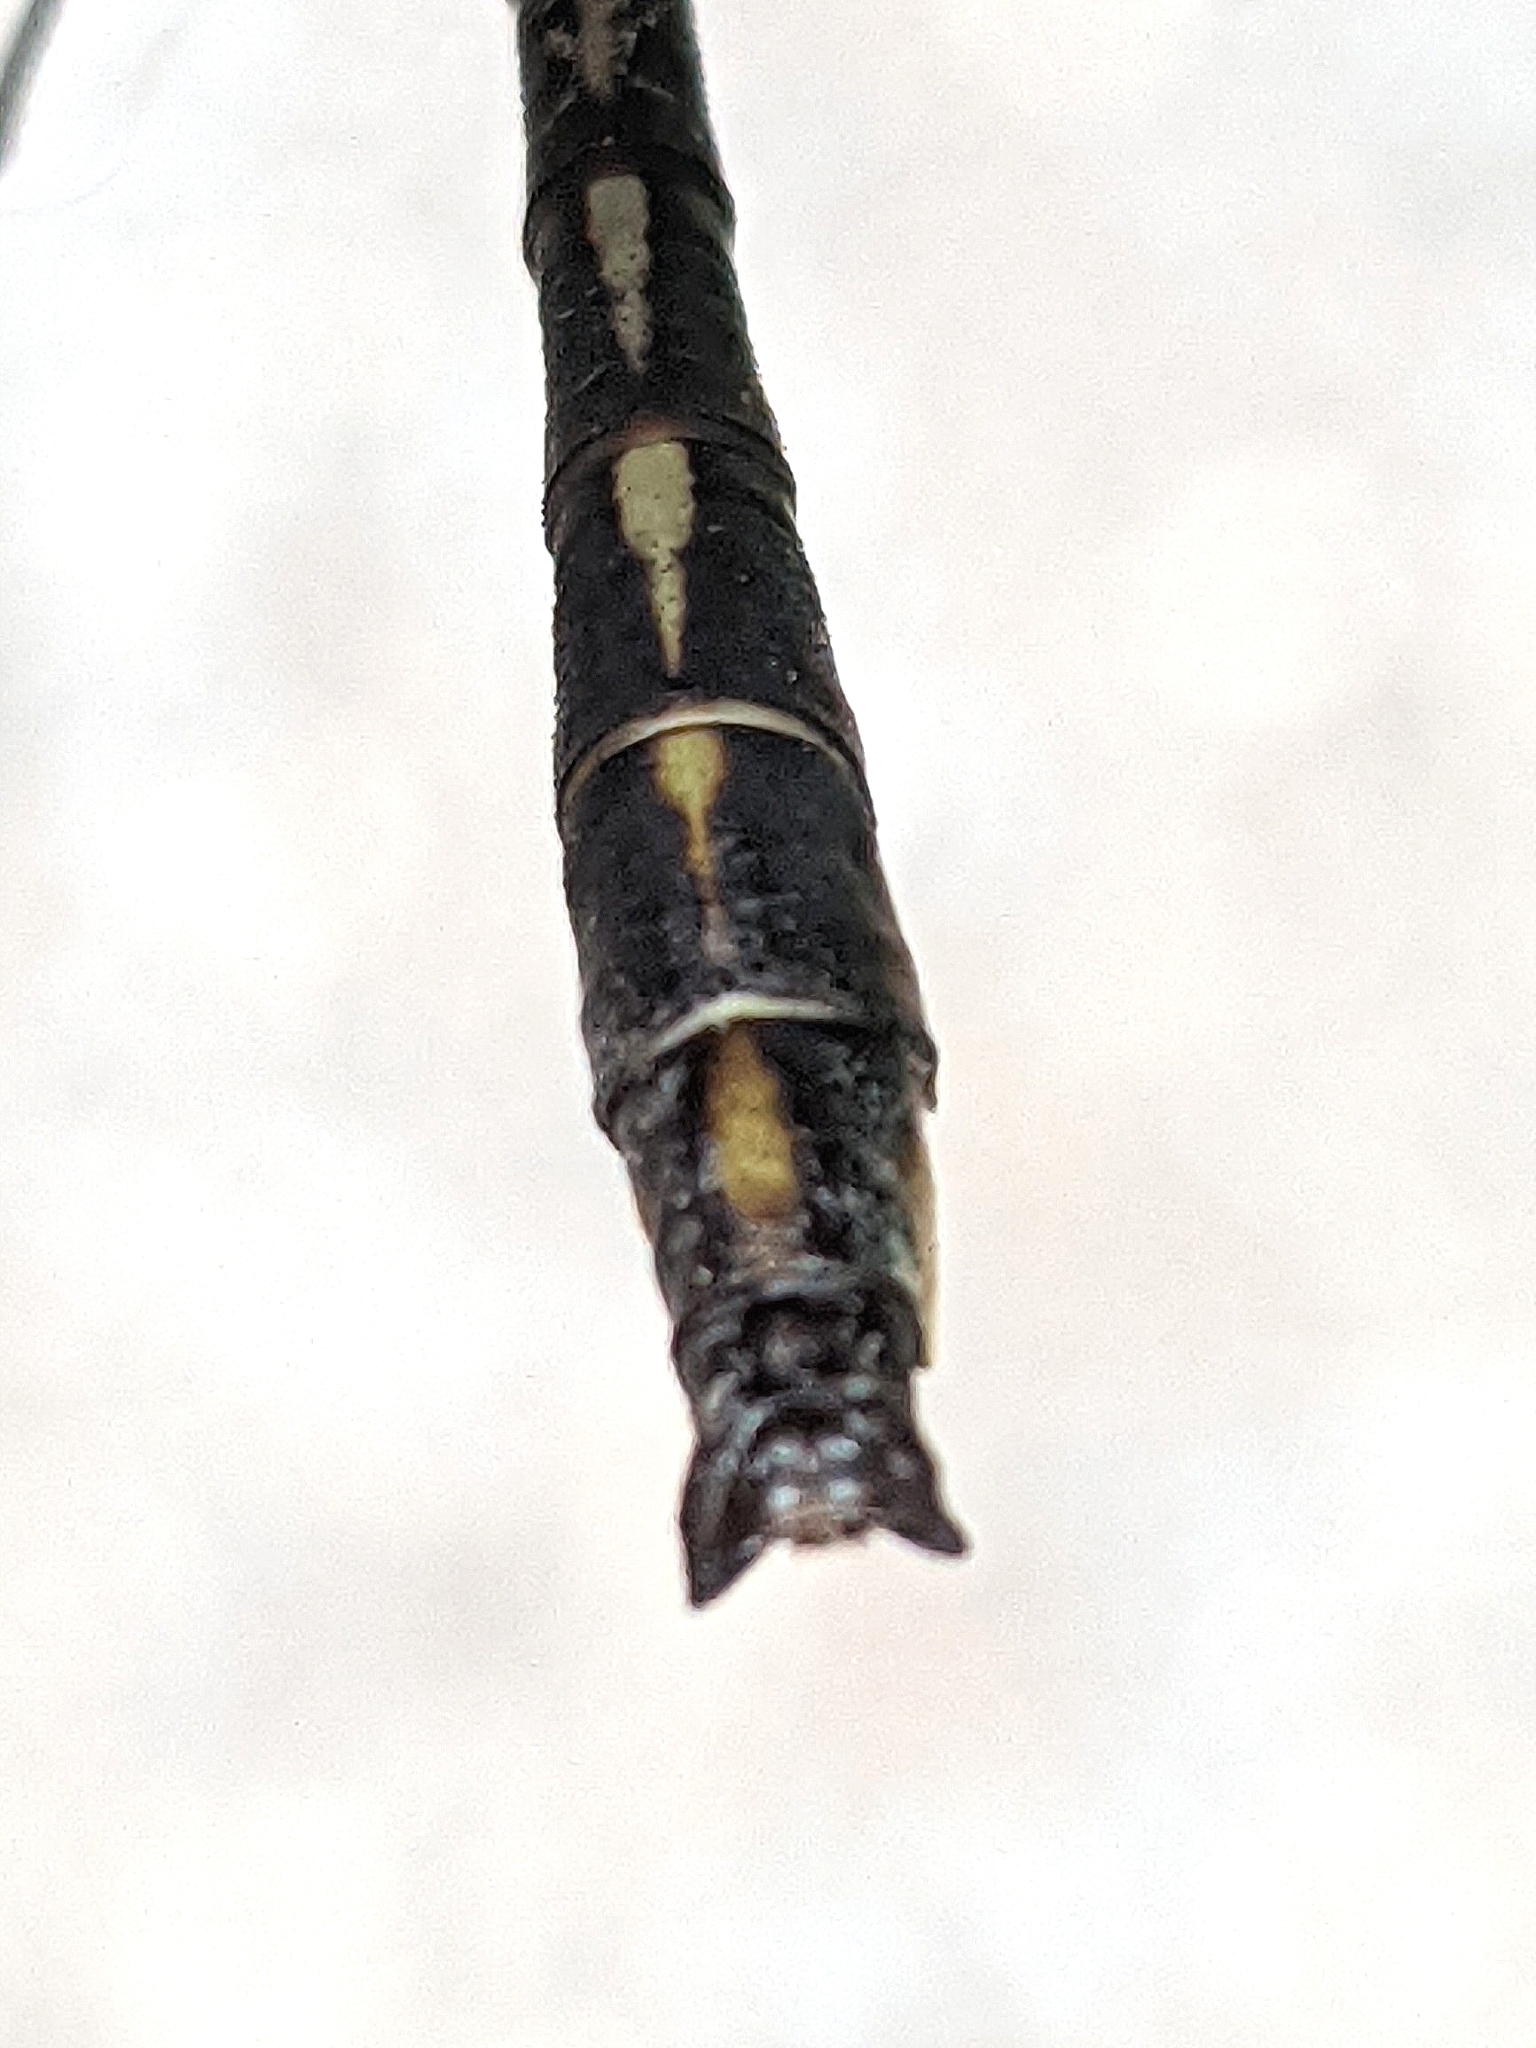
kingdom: Animalia
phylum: Arthropoda
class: Insecta
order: Odonata
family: Gomphidae
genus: Phanogomphus
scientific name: Phanogomphus exilis
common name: Lancet clubtail
